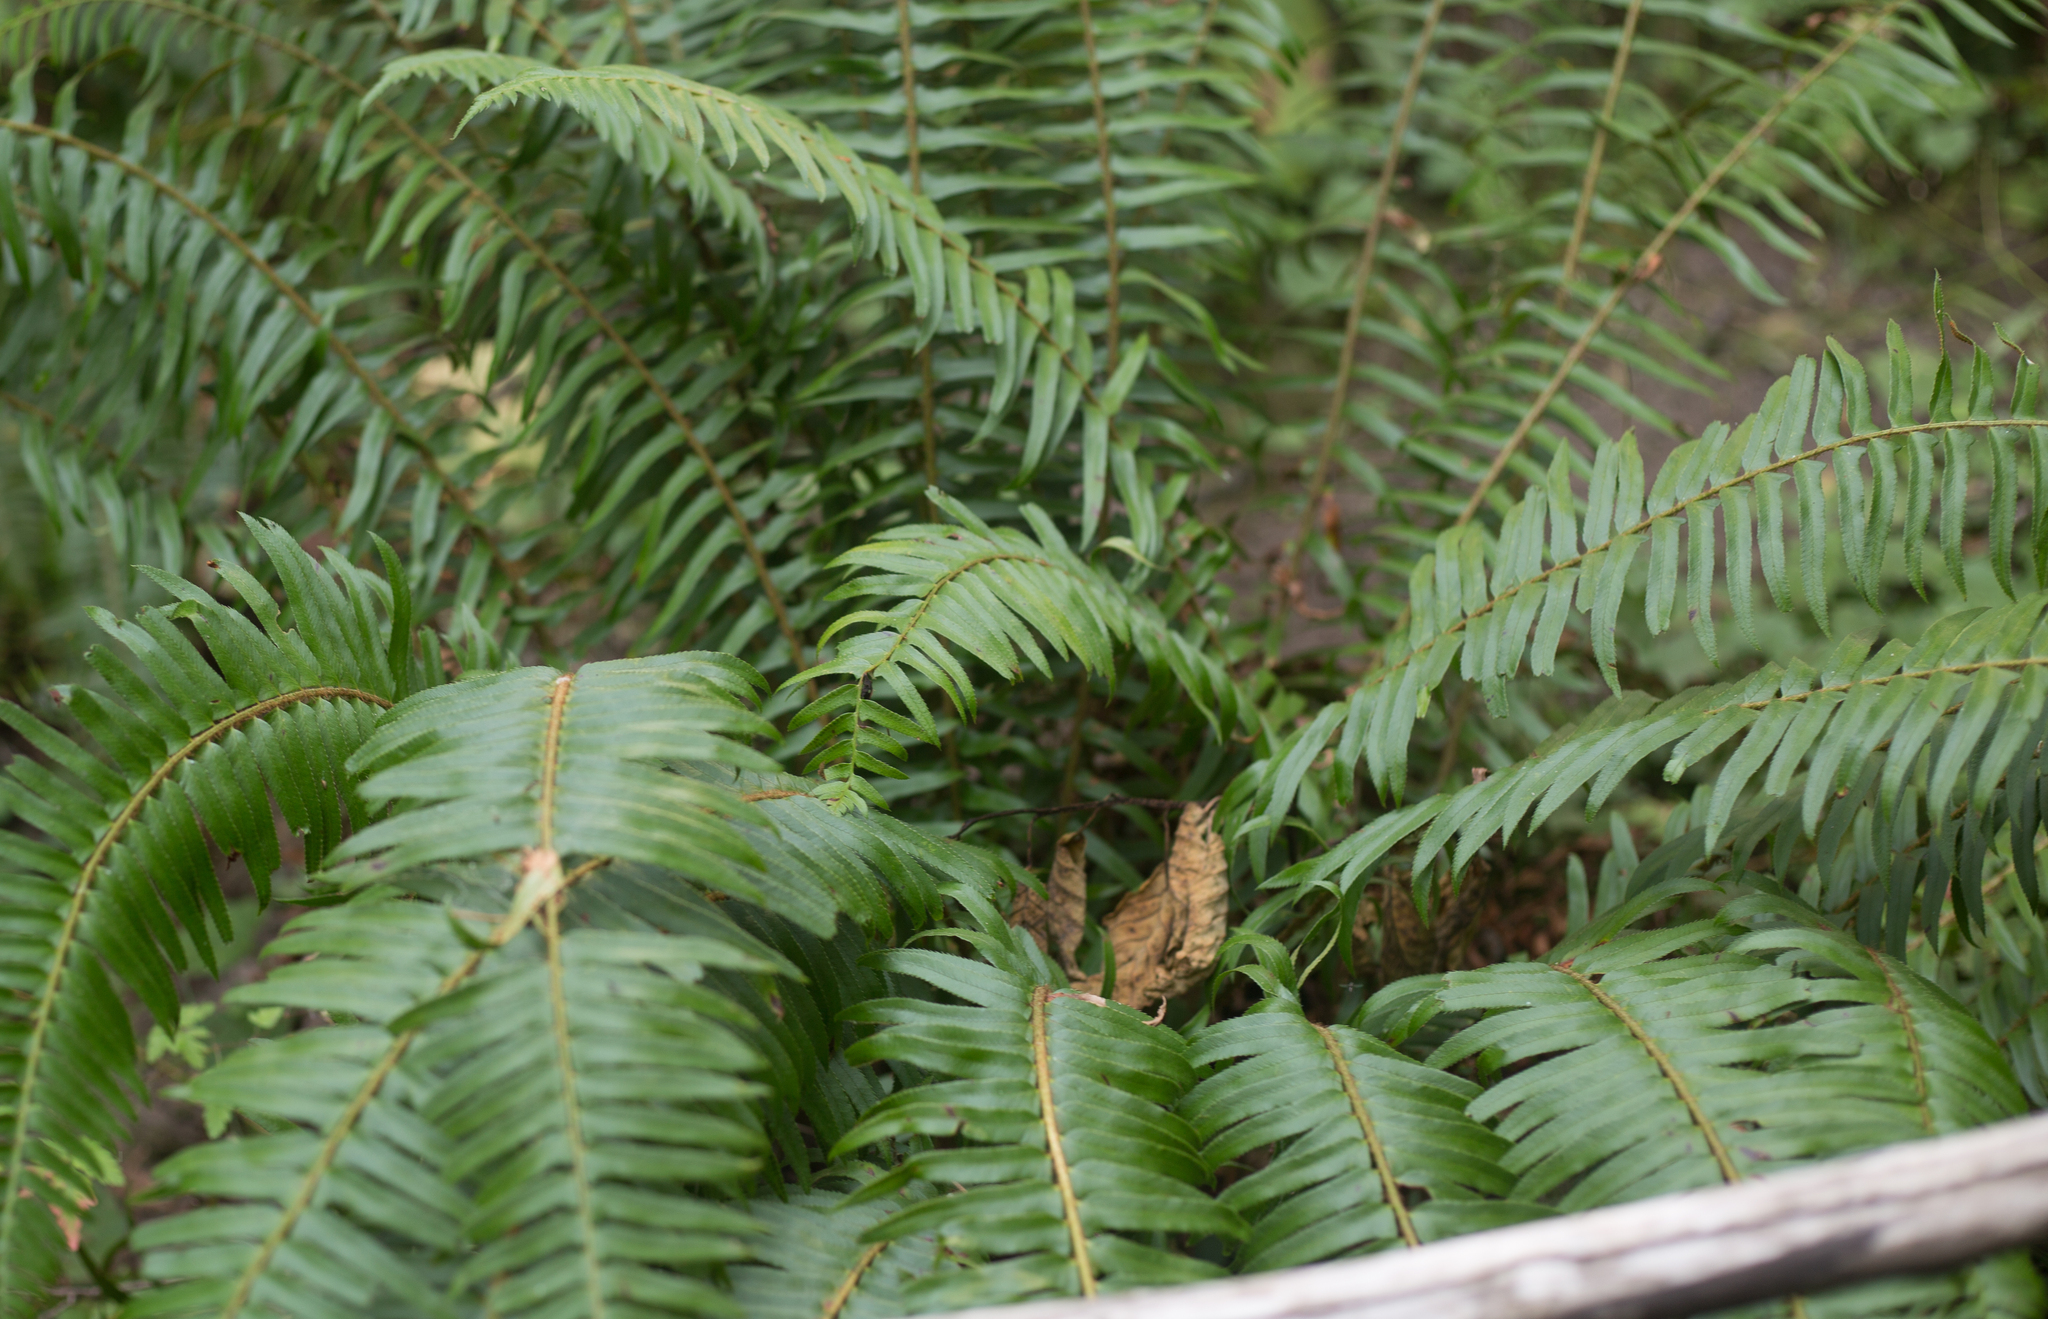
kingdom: Plantae
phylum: Tracheophyta
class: Polypodiopsida
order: Polypodiales
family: Dryopteridaceae
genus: Polystichum
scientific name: Polystichum munitum
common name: Western sword-fern
